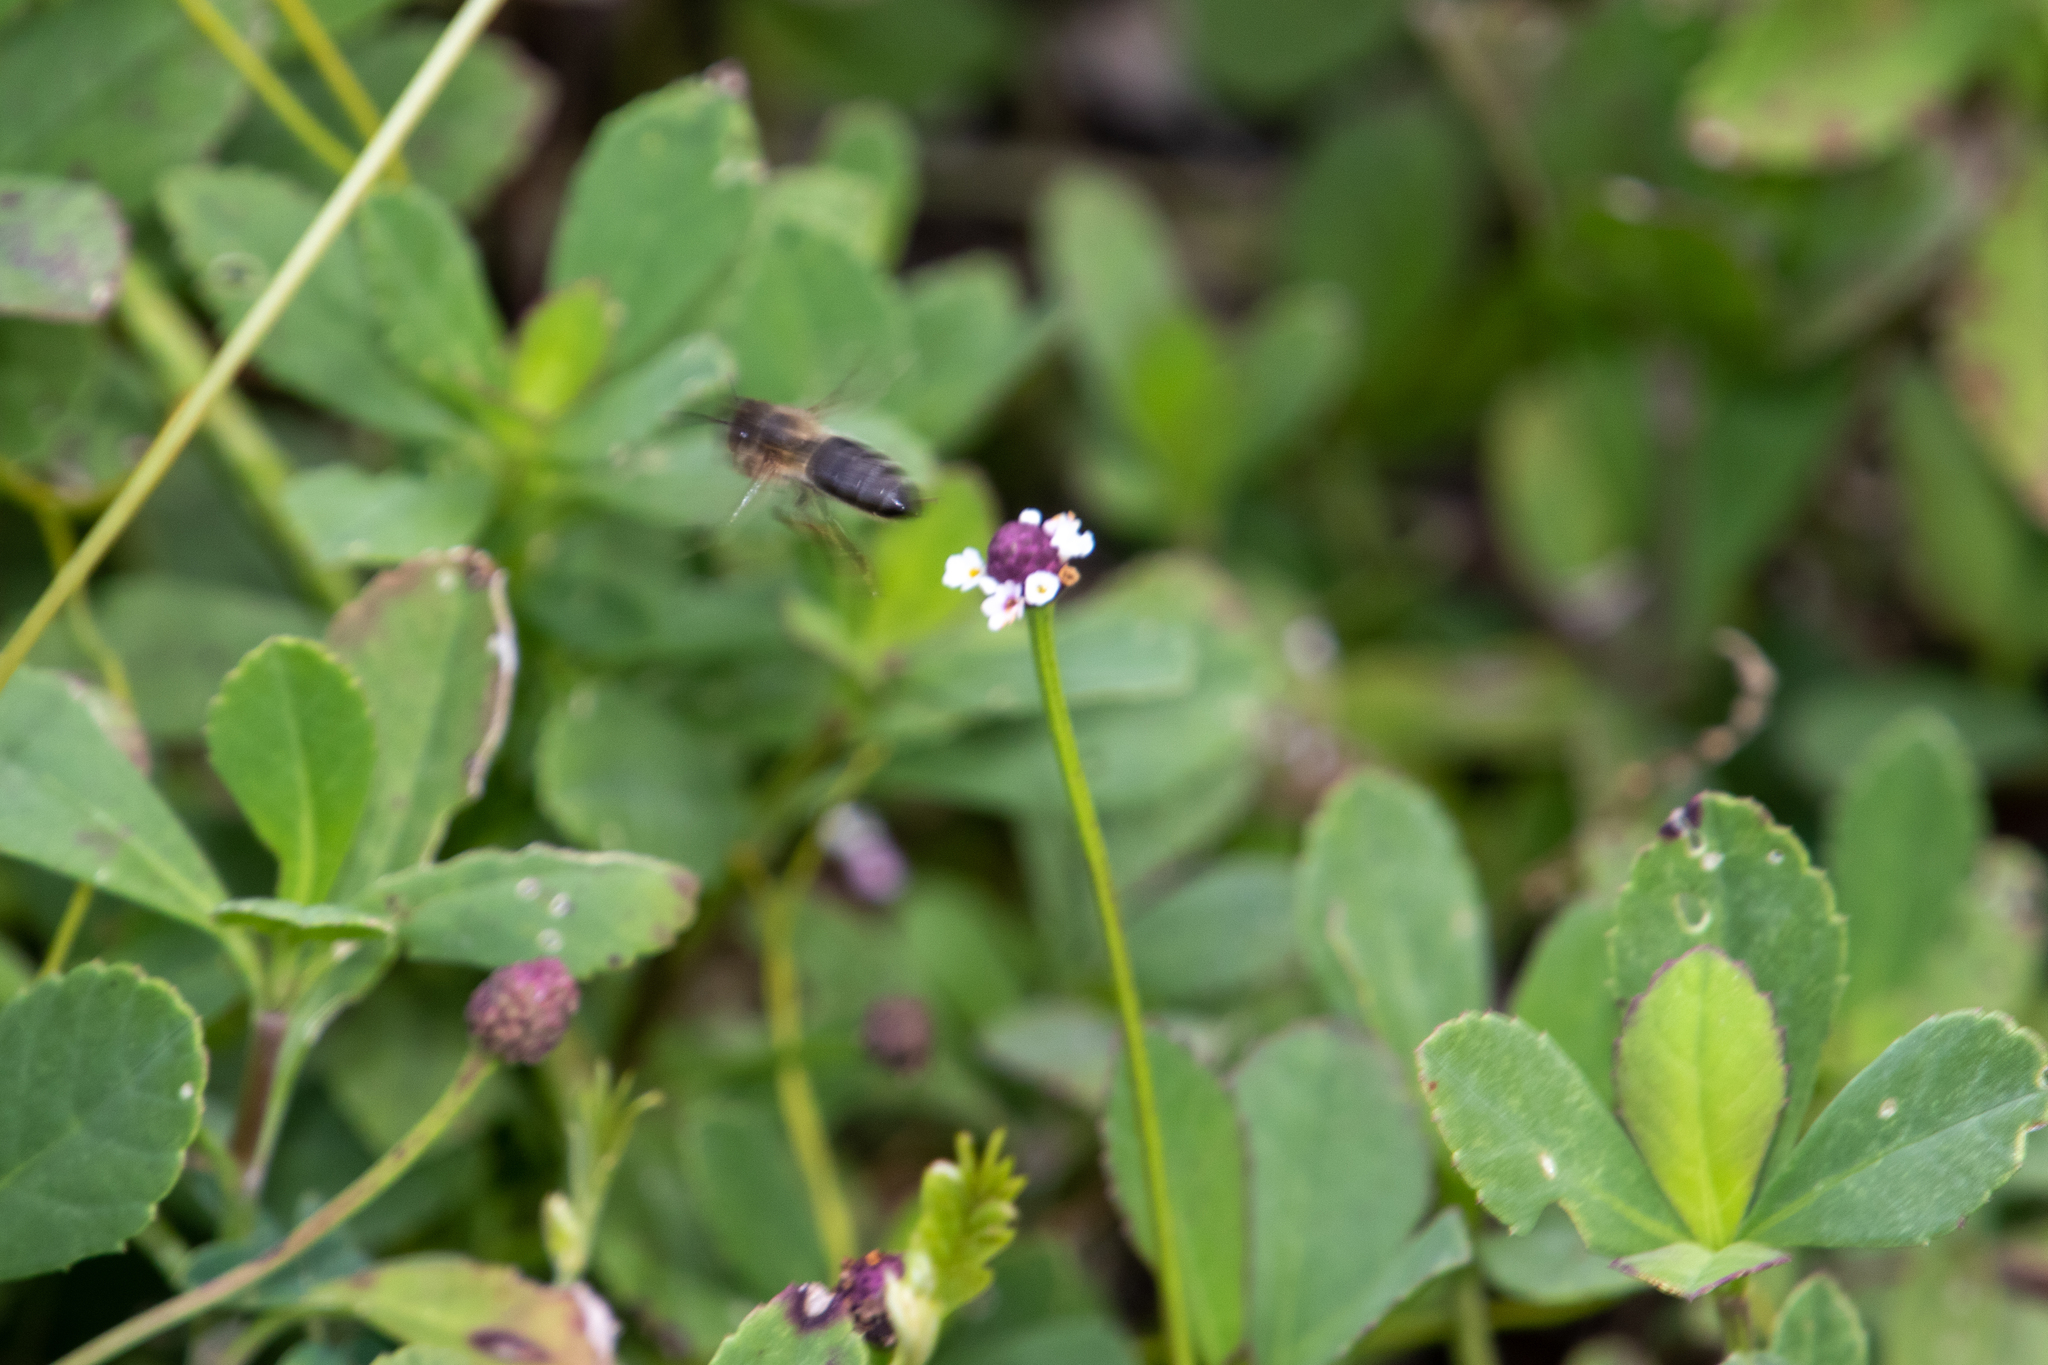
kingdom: Plantae
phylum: Tracheophyta
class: Magnoliopsida
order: Lamiales
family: Verbenaceae
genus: Phyla
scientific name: Phyla nodiflora
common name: Frogfruit
